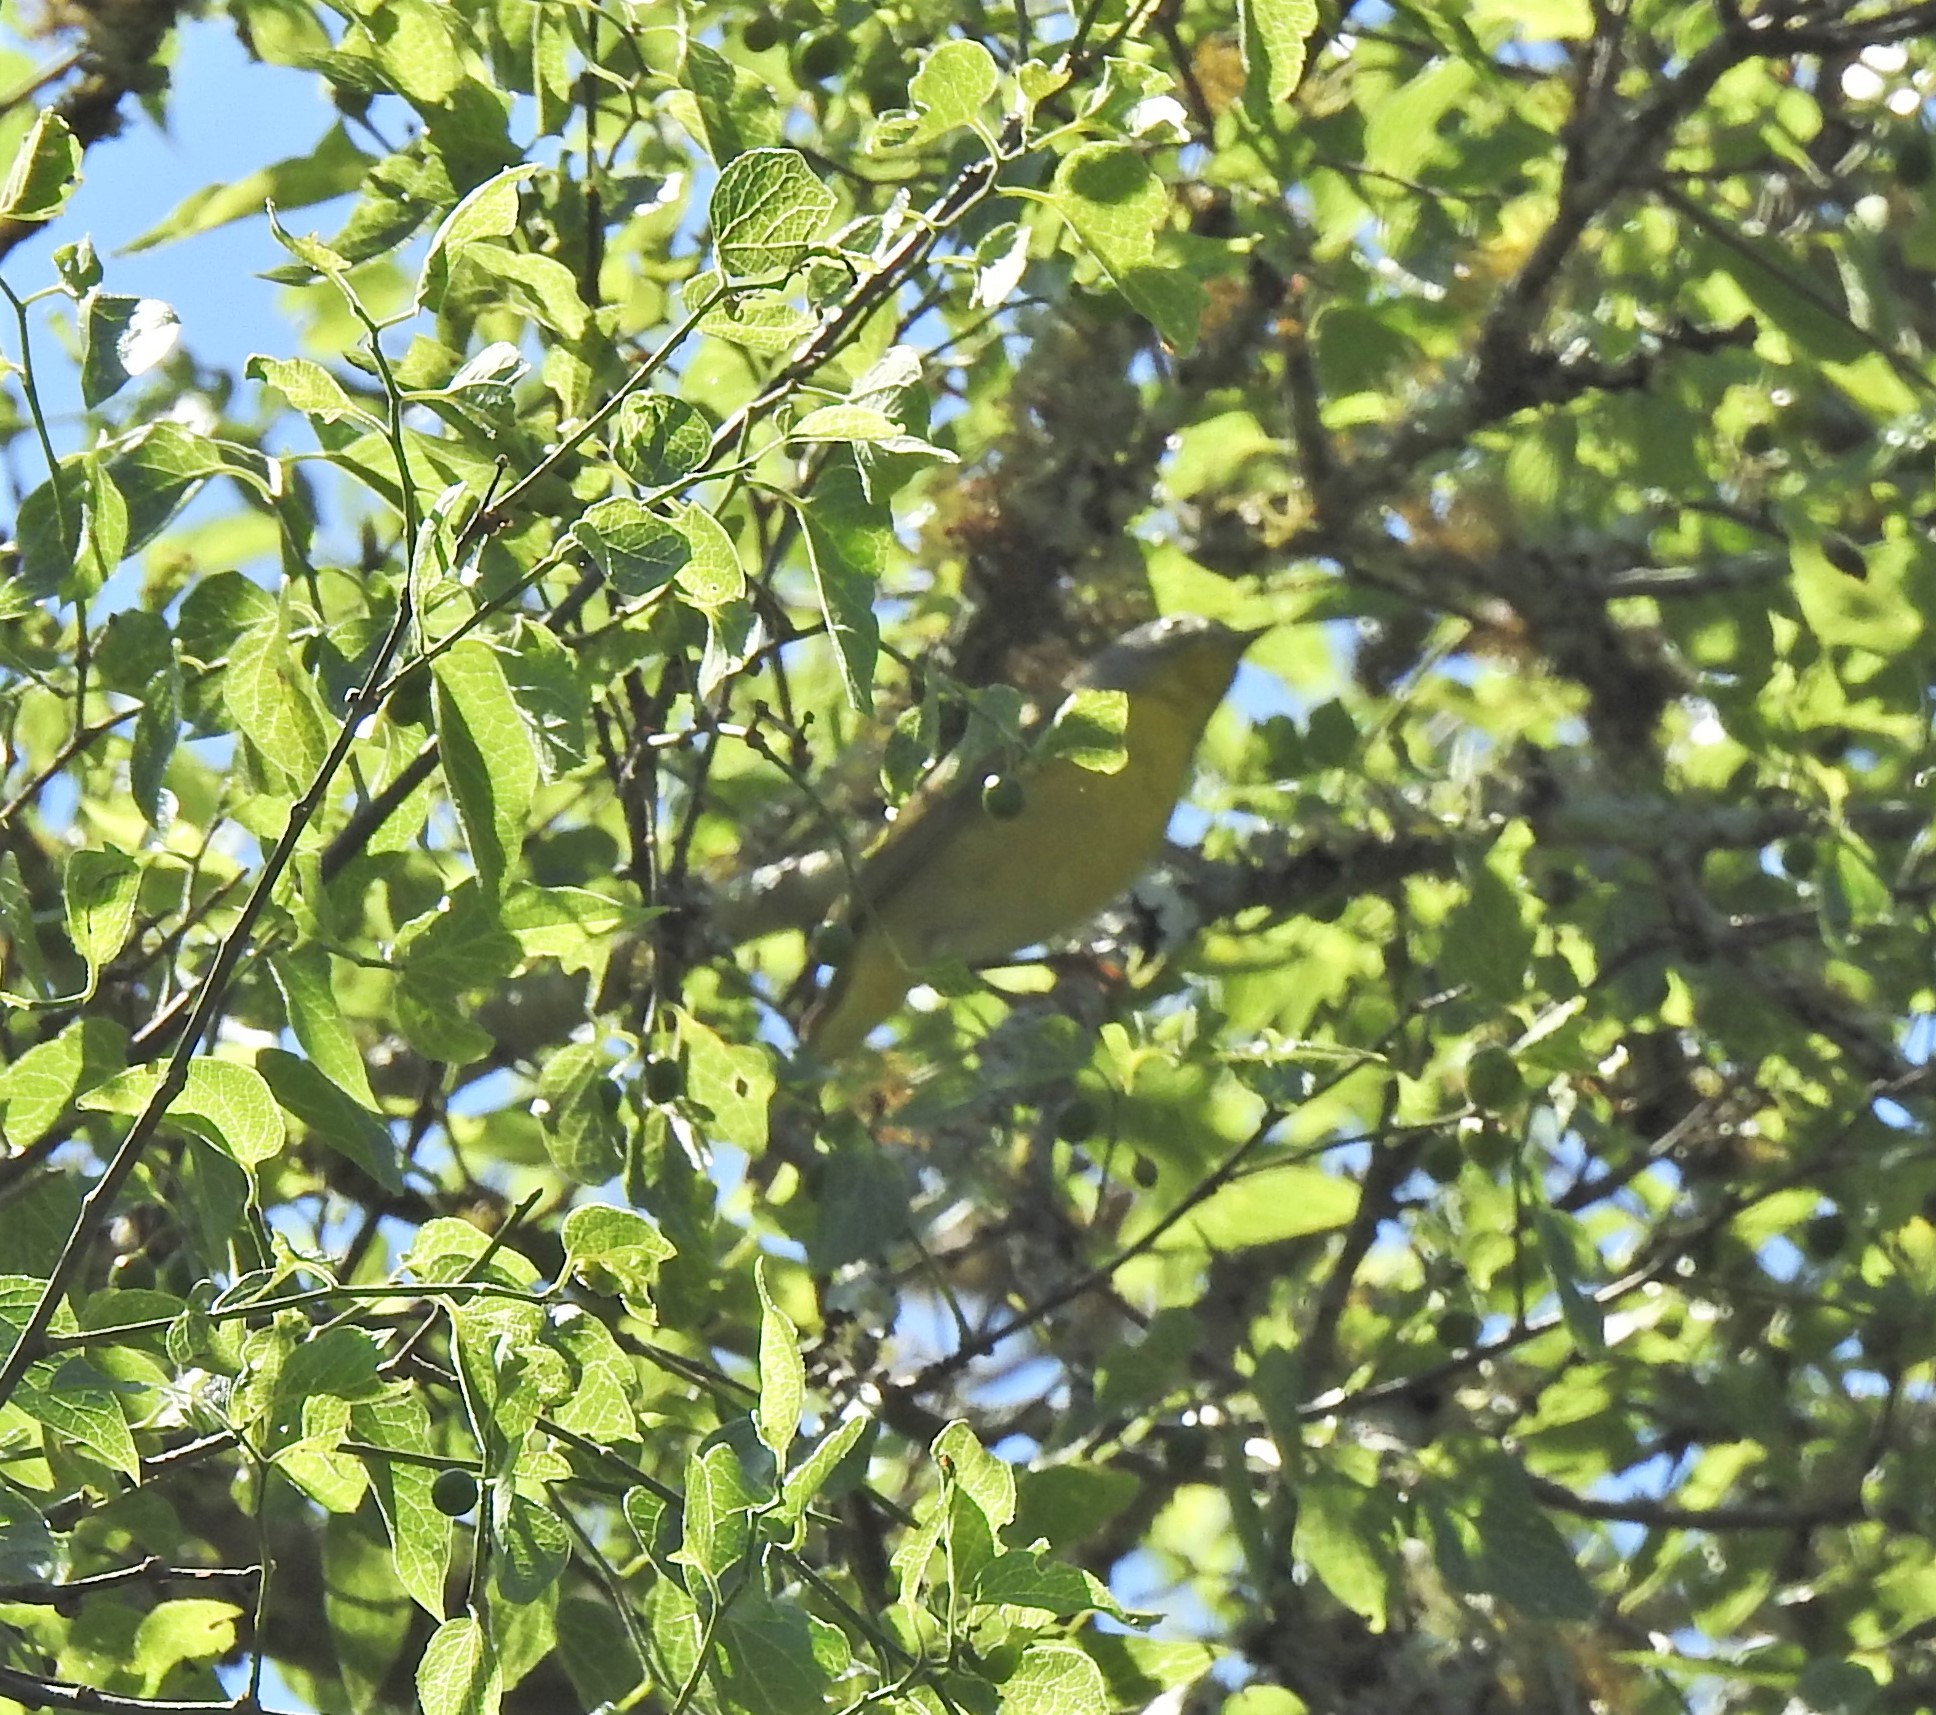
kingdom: Animalia
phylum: Chordata
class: Aves
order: Passeriformes
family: Parulidae
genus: Leiothlypis
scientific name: Leiothlypis ruficapilla
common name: Nashville warbler
